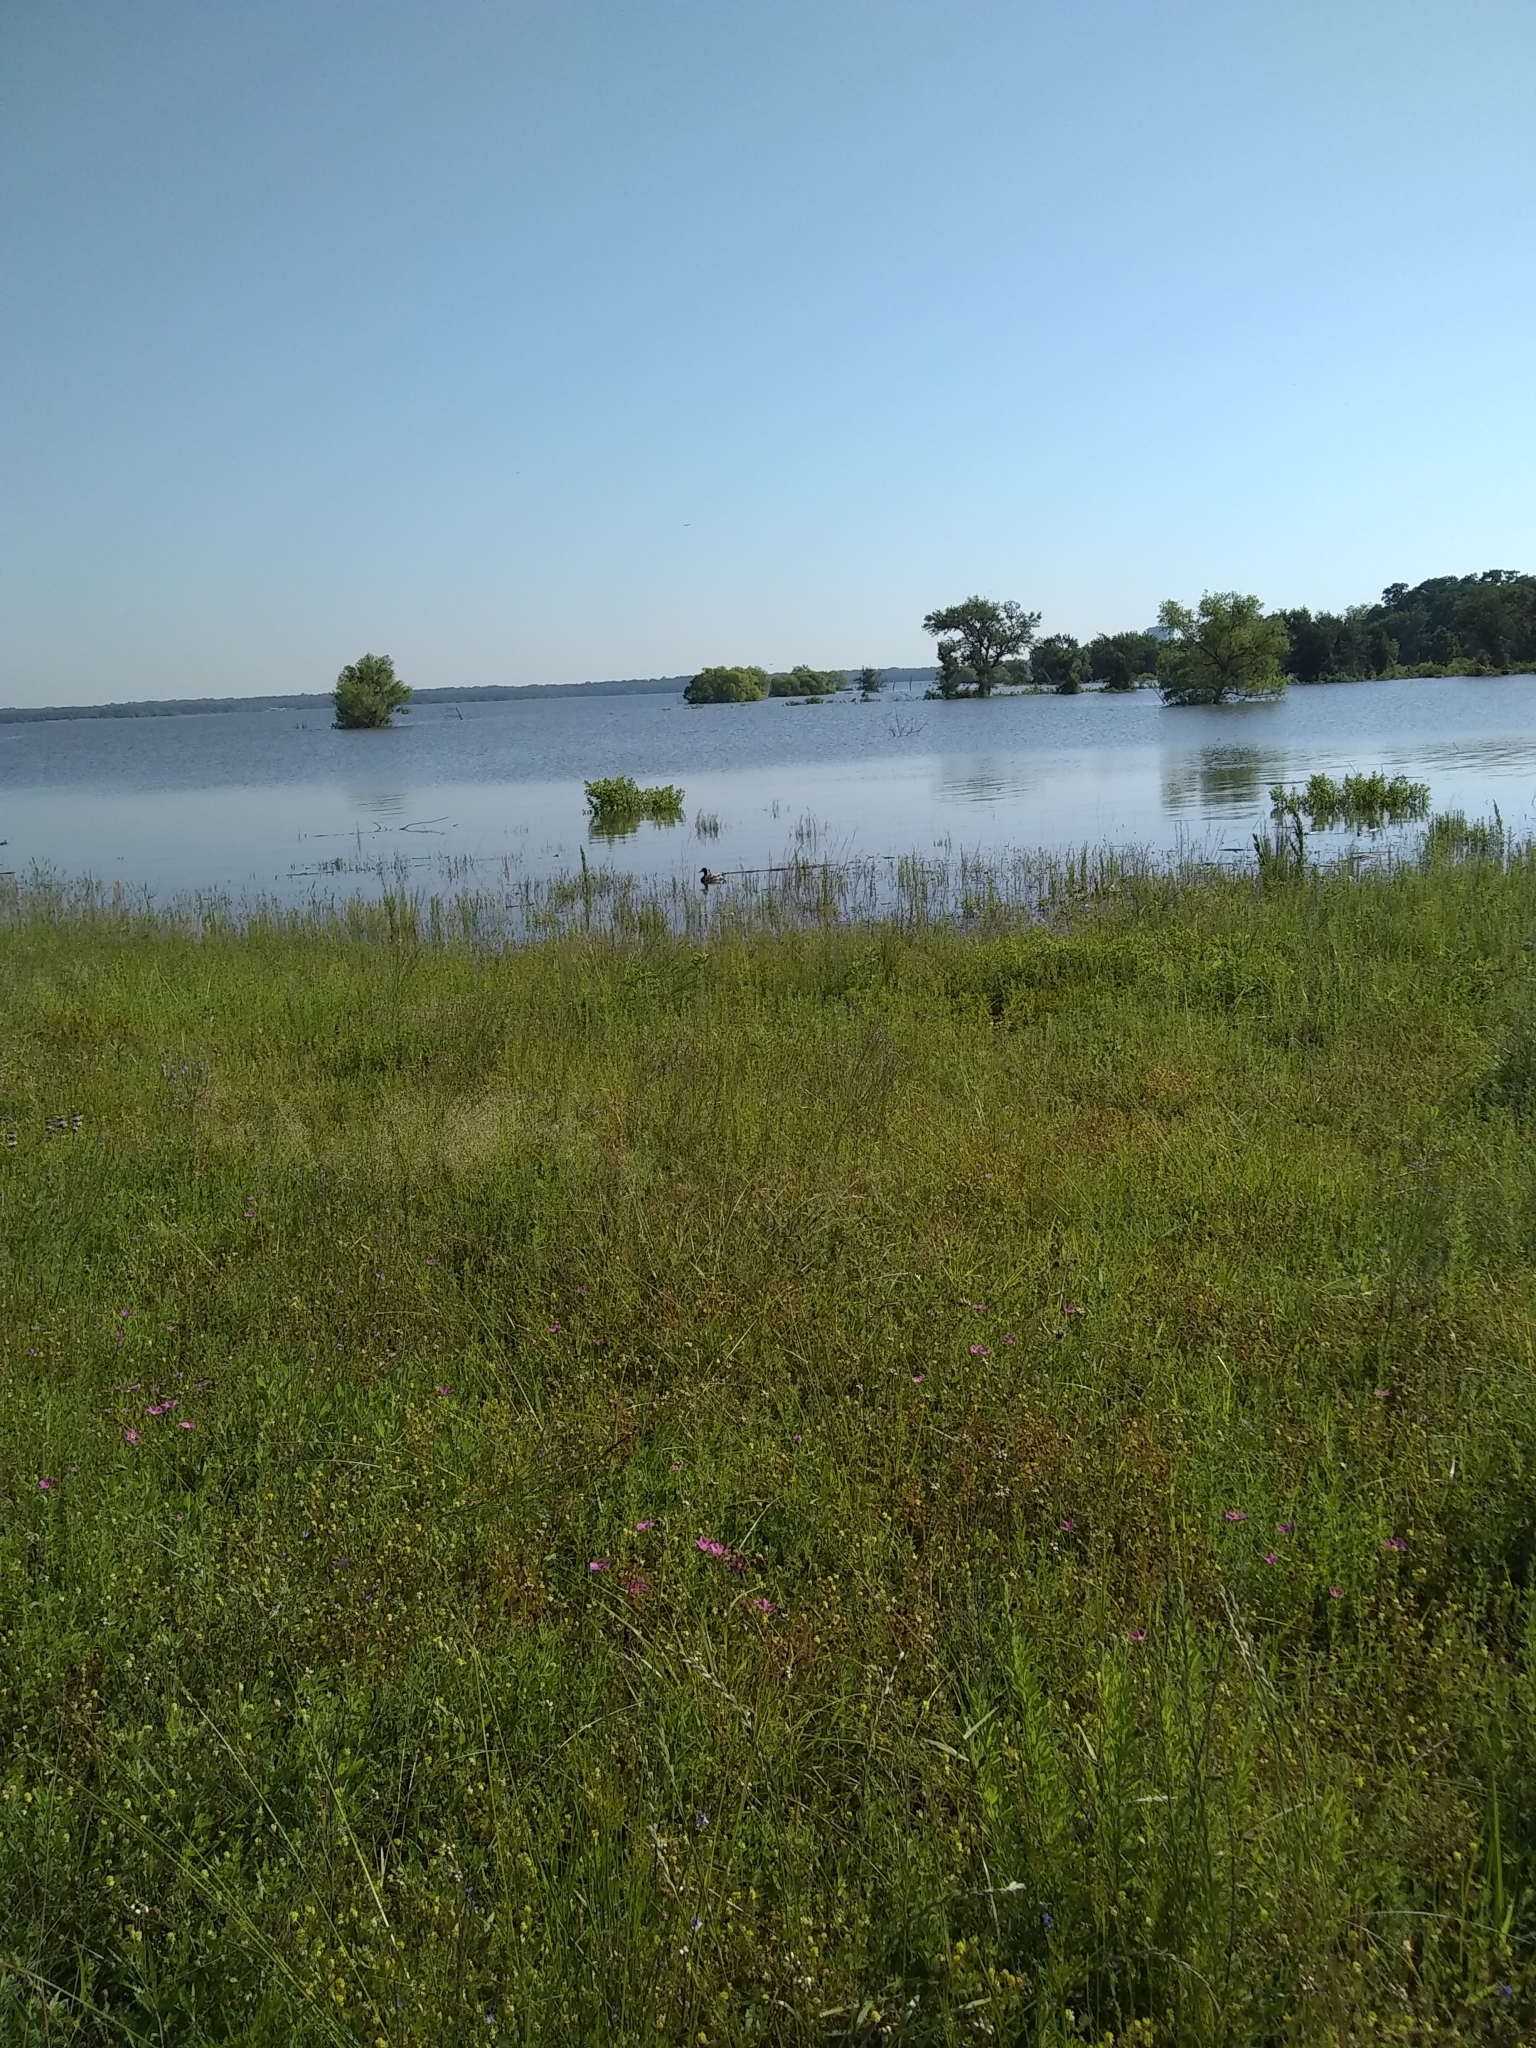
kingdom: Animalia
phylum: Chordata
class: Aves
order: Anseriformes
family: Anatidae
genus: Anas
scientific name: Anas platyrhynchos
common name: Mallard
